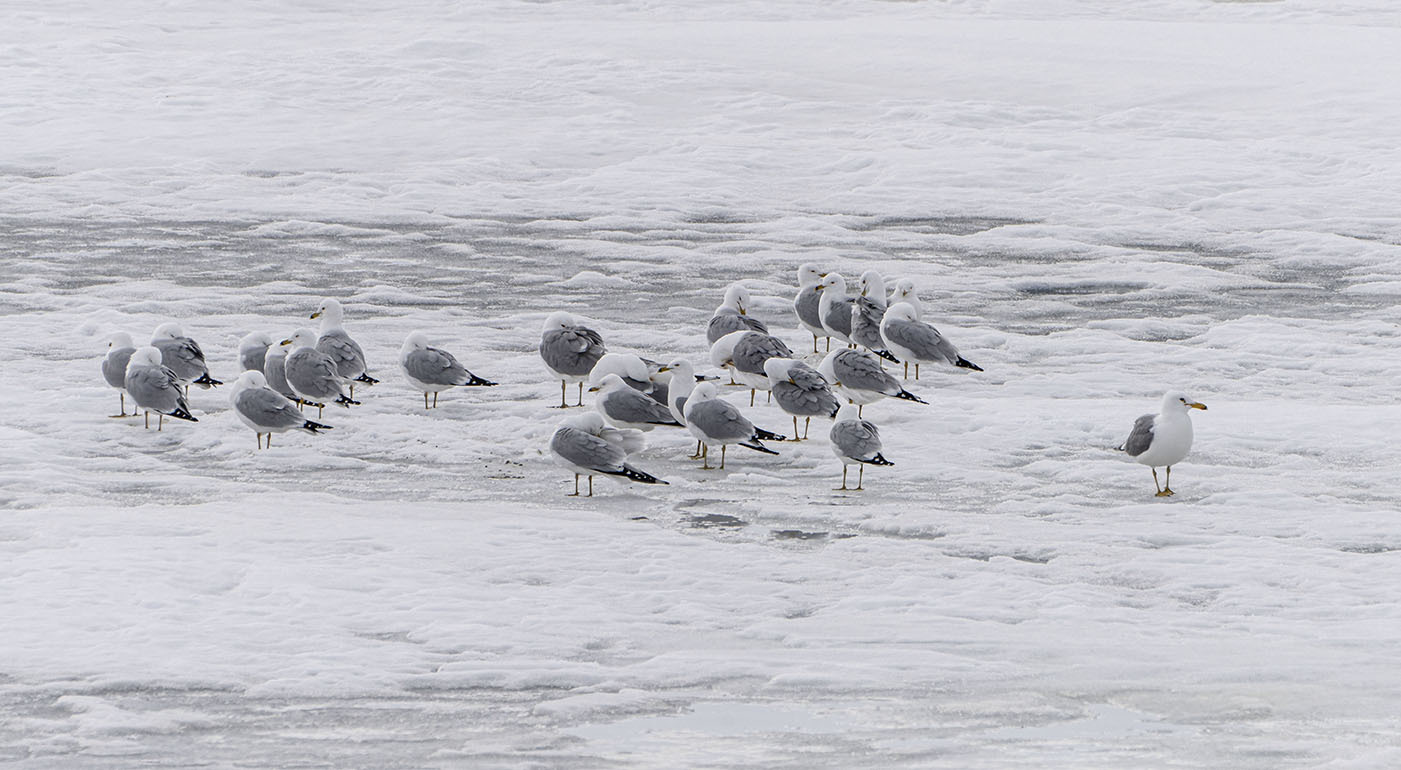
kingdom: Animalia
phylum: Chordata
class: Aves
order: Charadriiformes
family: Laridae
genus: Larus
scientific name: Larus delawarensis
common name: Ring-billed gull
